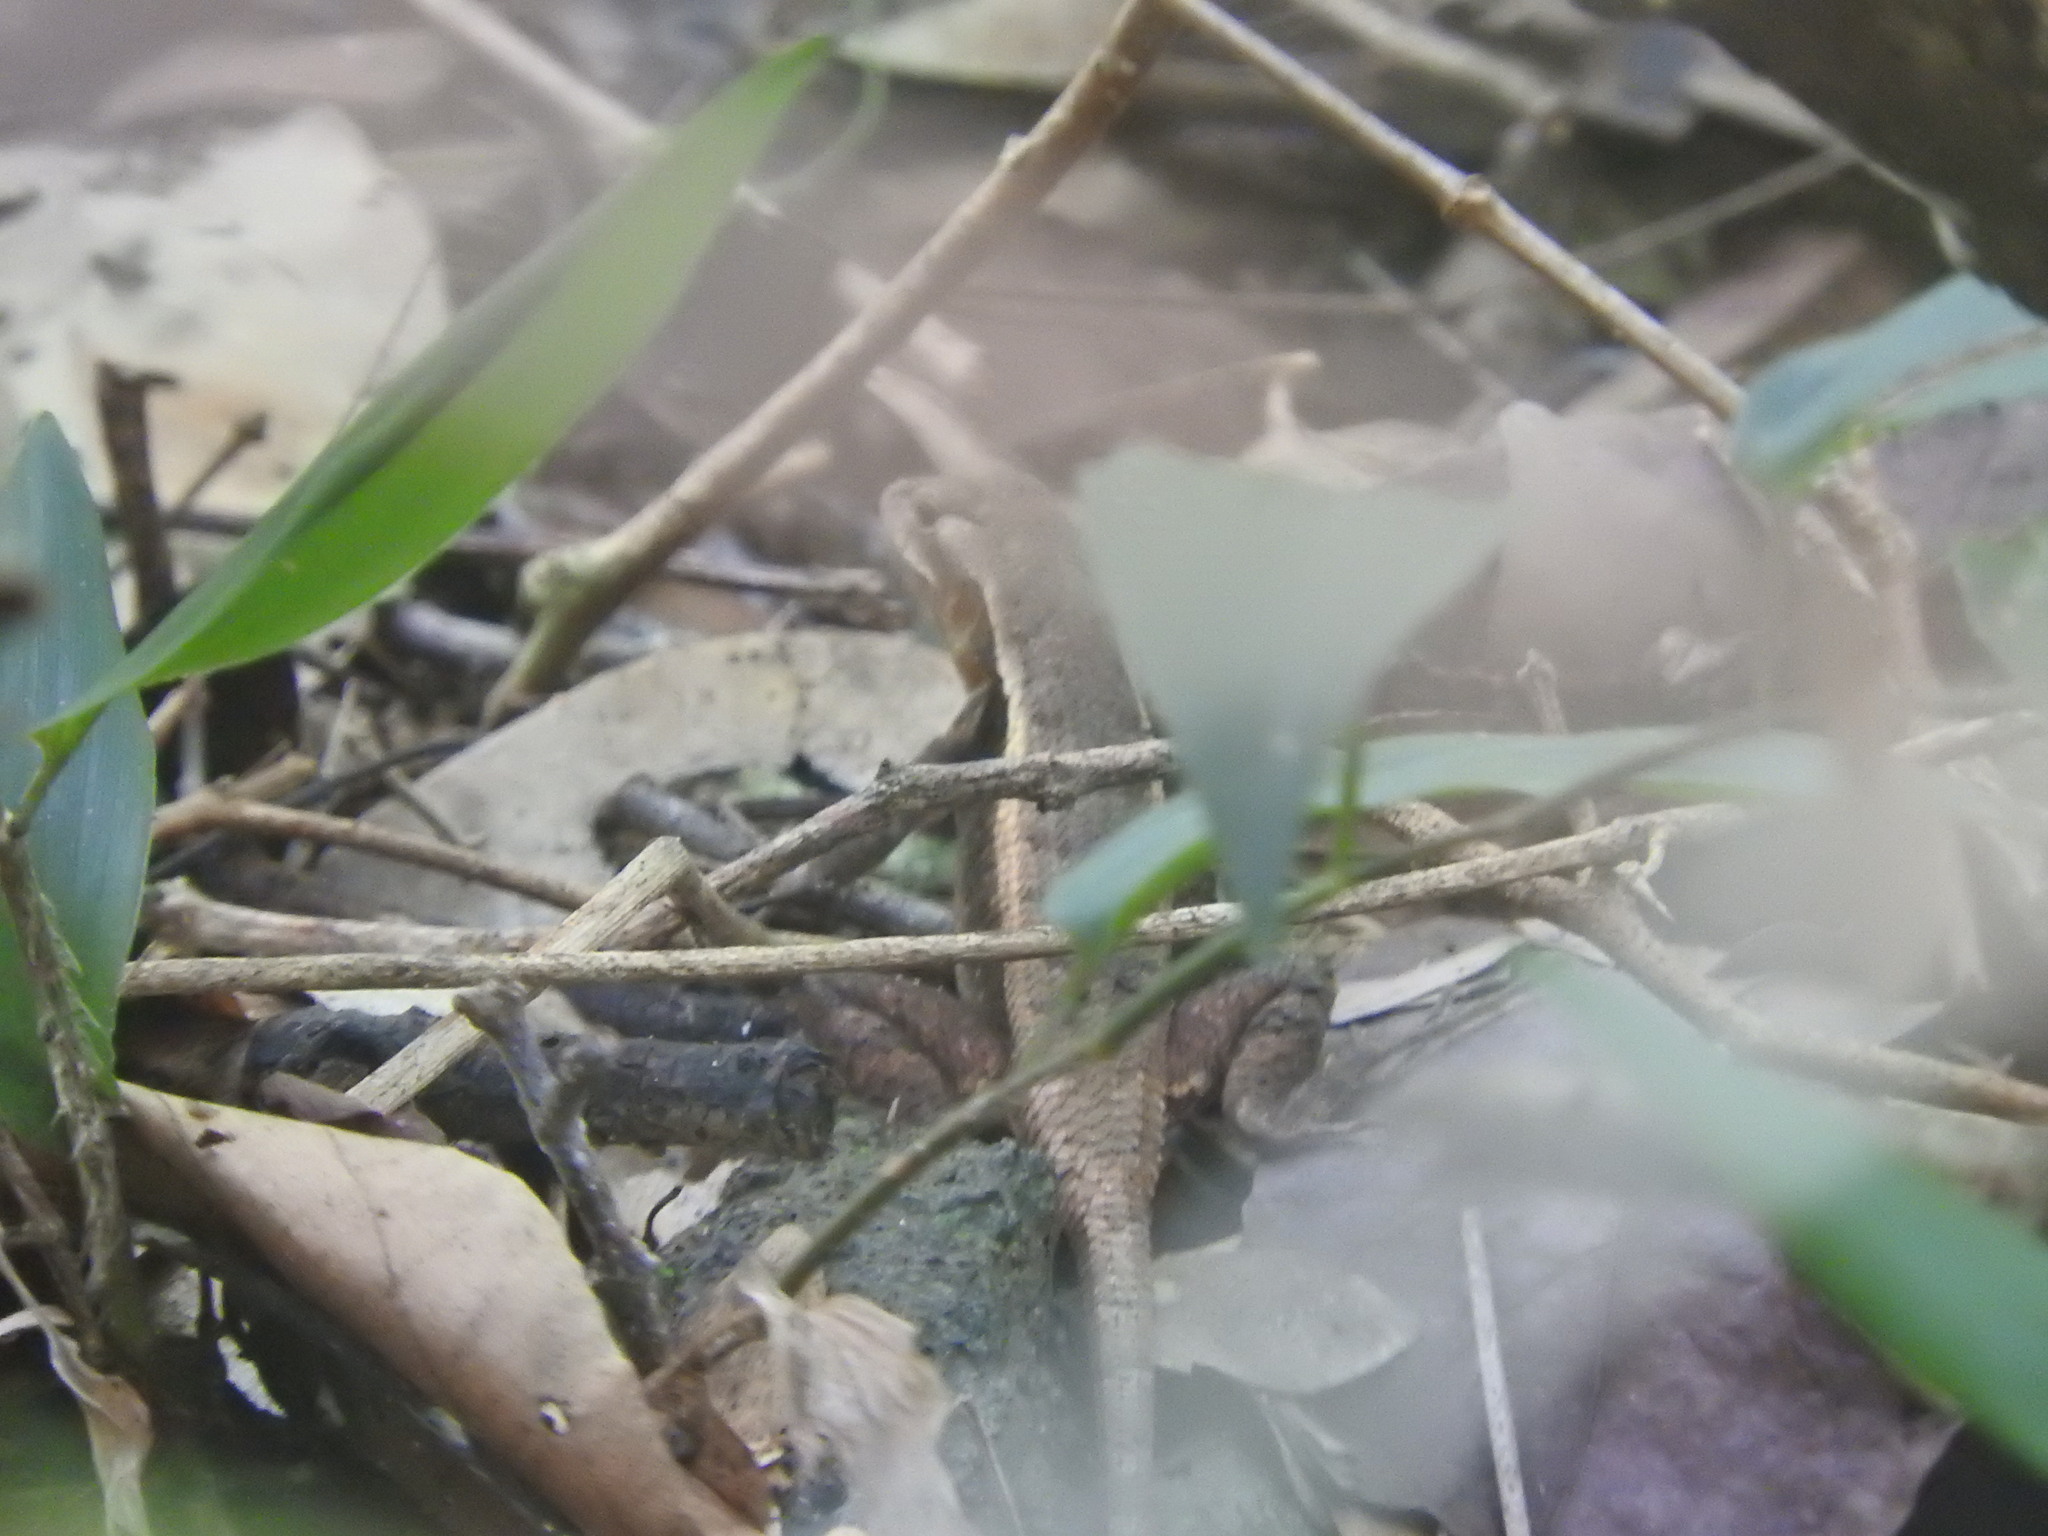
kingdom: Animalia
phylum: Chordata
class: Squamata
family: Phrynosomatidae
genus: Sceloporus
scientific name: Sceloporus chrysostictus
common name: Yellow-spotted spiny lizard
